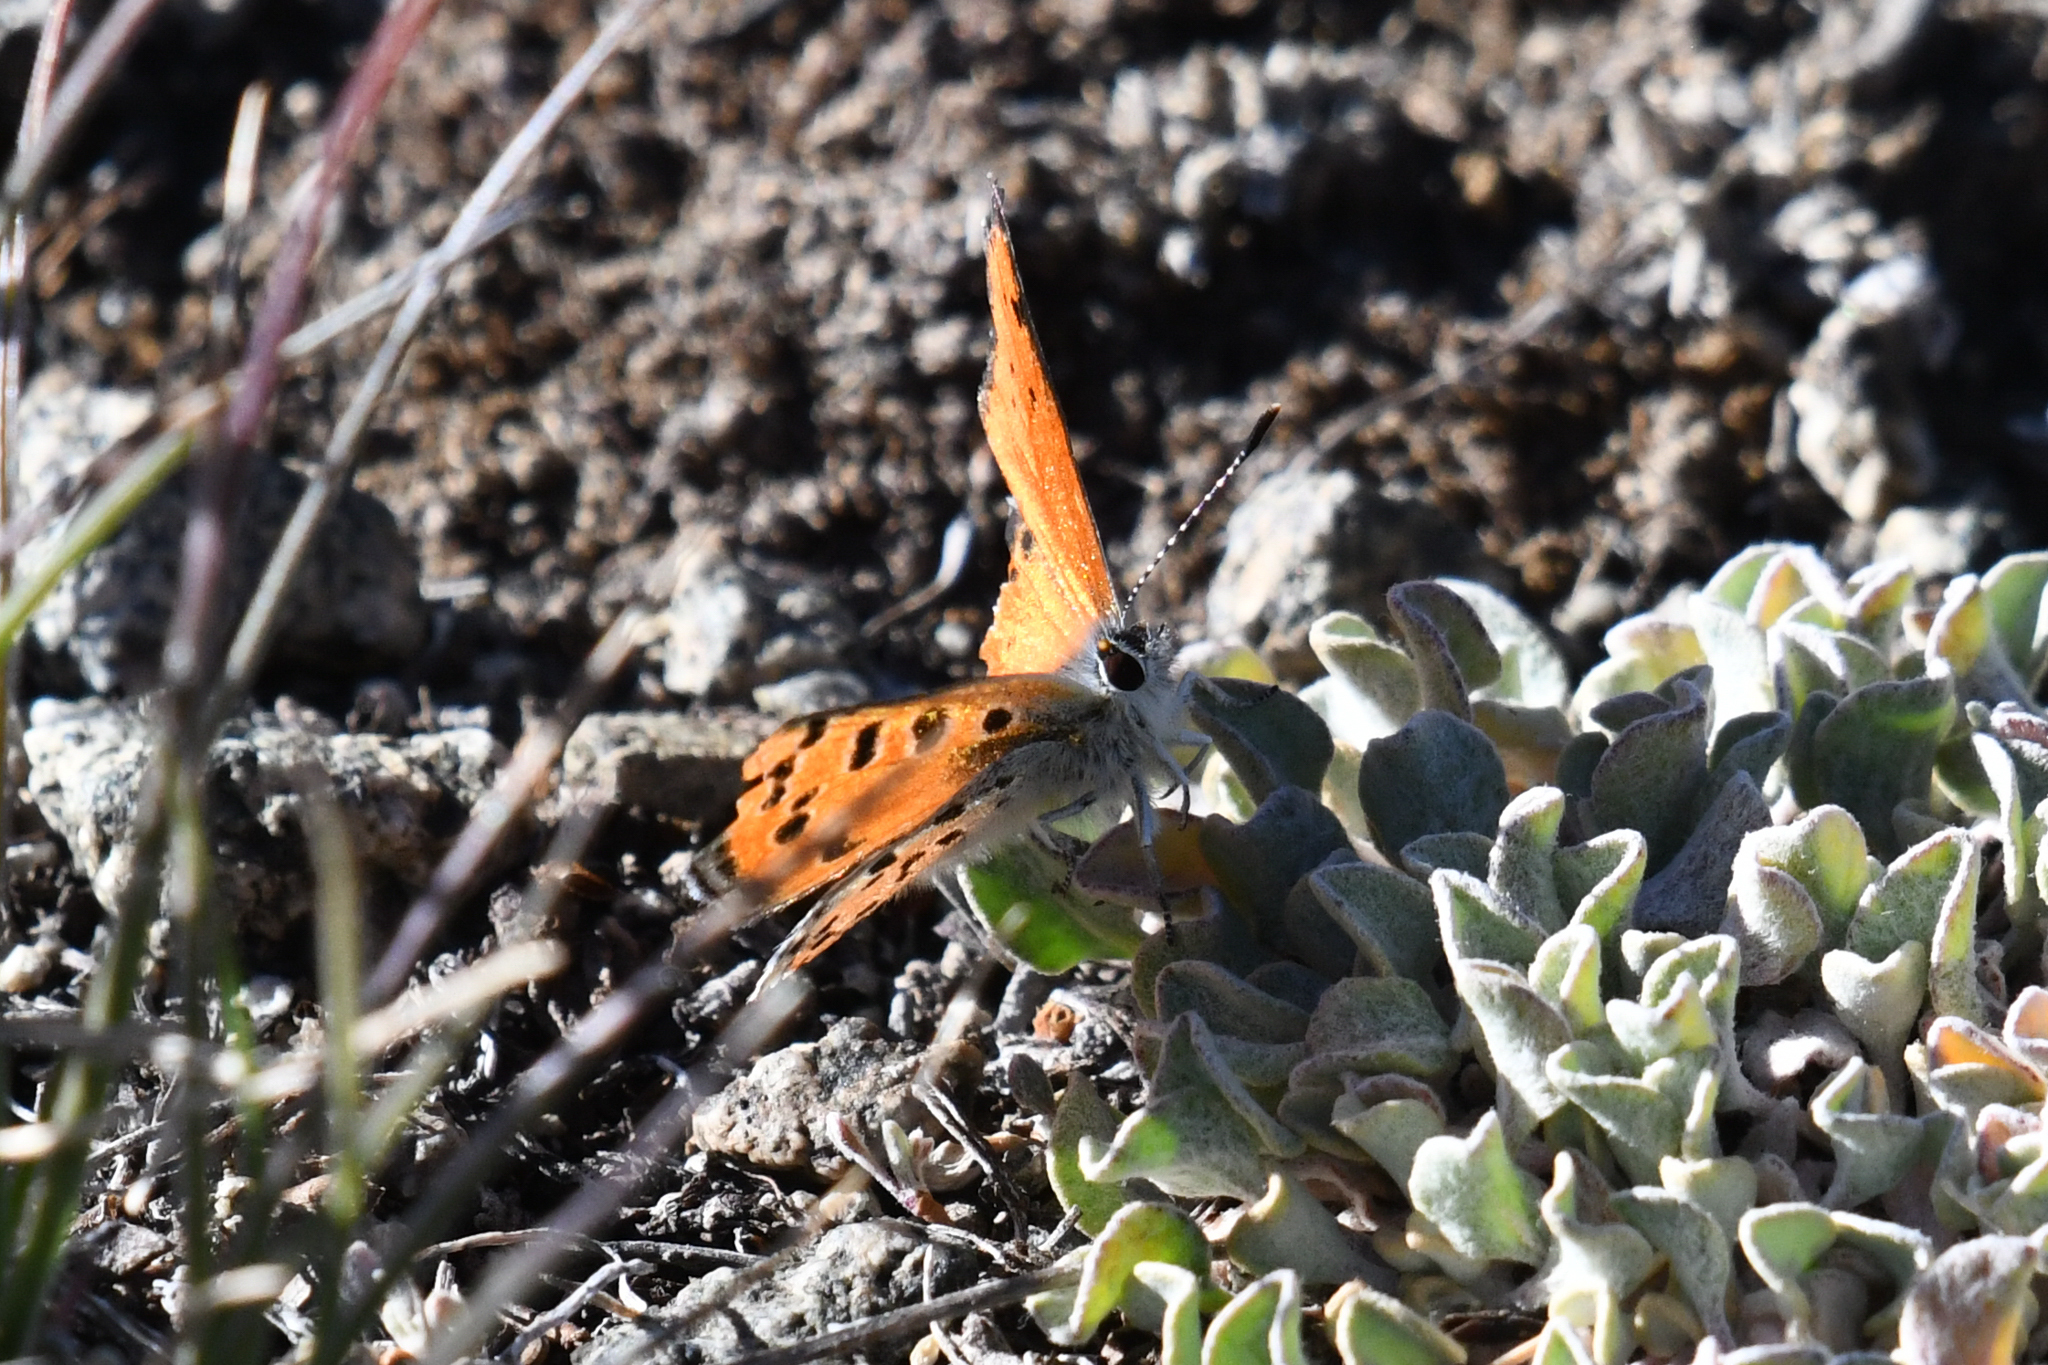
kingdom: Animalia
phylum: Arthropoda
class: Insecta
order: Lepidoptera
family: Lycaenidae
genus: Lycaena
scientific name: Lycaena cupreus
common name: Lustrous copper
